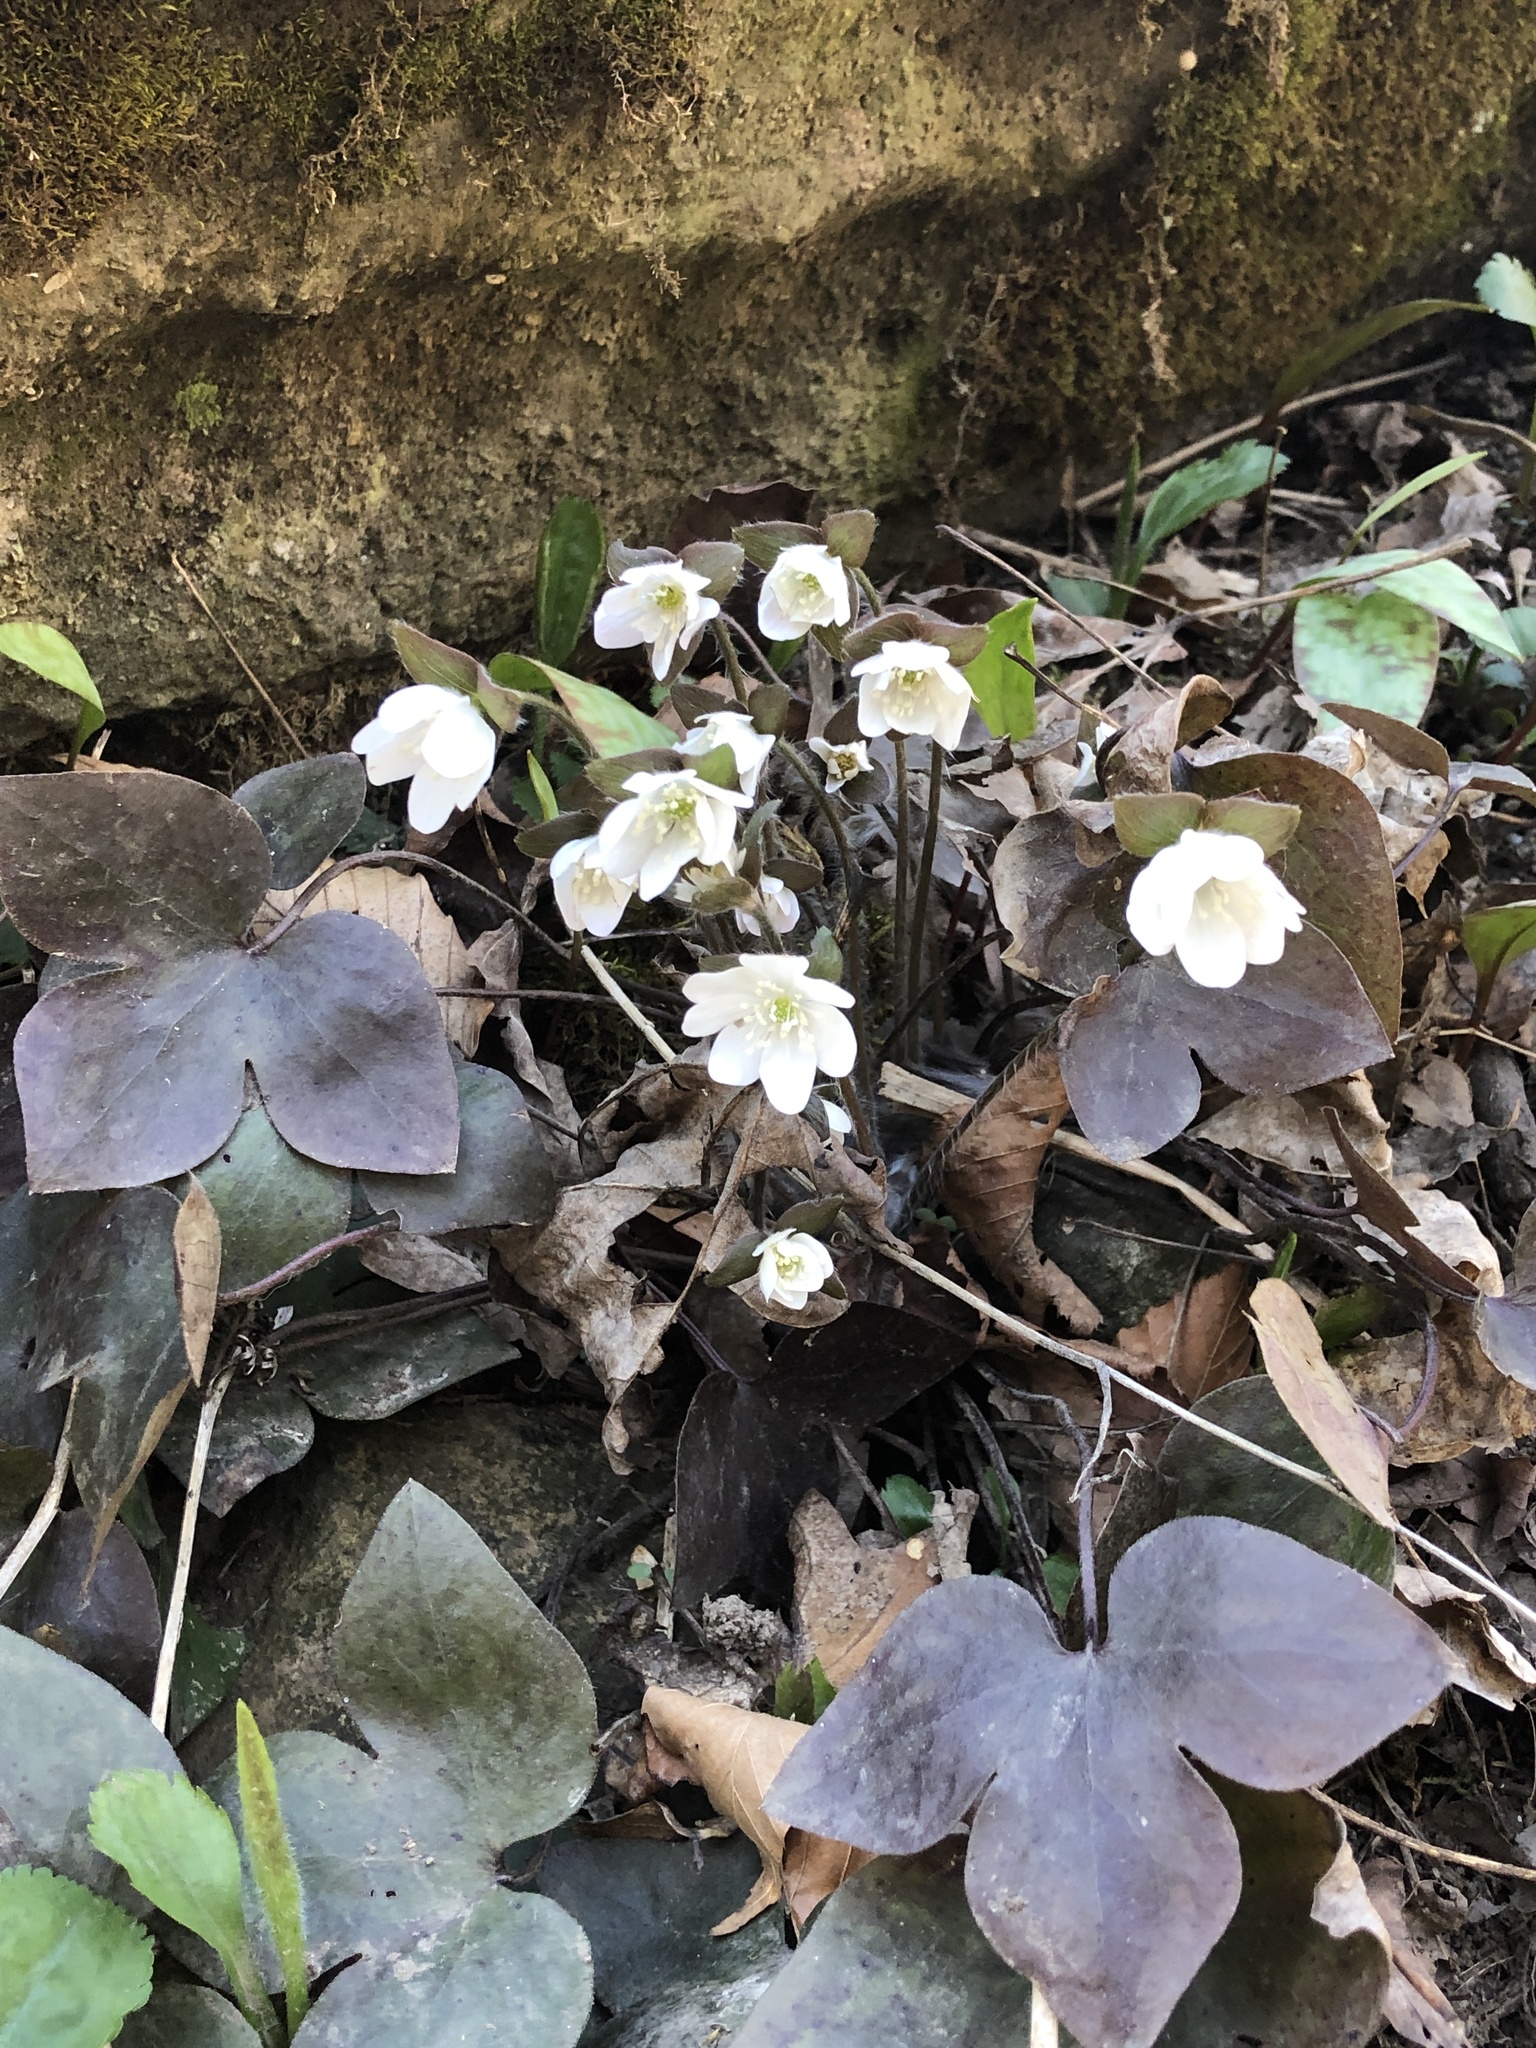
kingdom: Plantae
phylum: Tracheophyta
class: Magnoliopsida
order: Ranunculales
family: Ranunculaceae
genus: Hepatica
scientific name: Hepatica acutiloba
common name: Sharp-lobed hepatica
